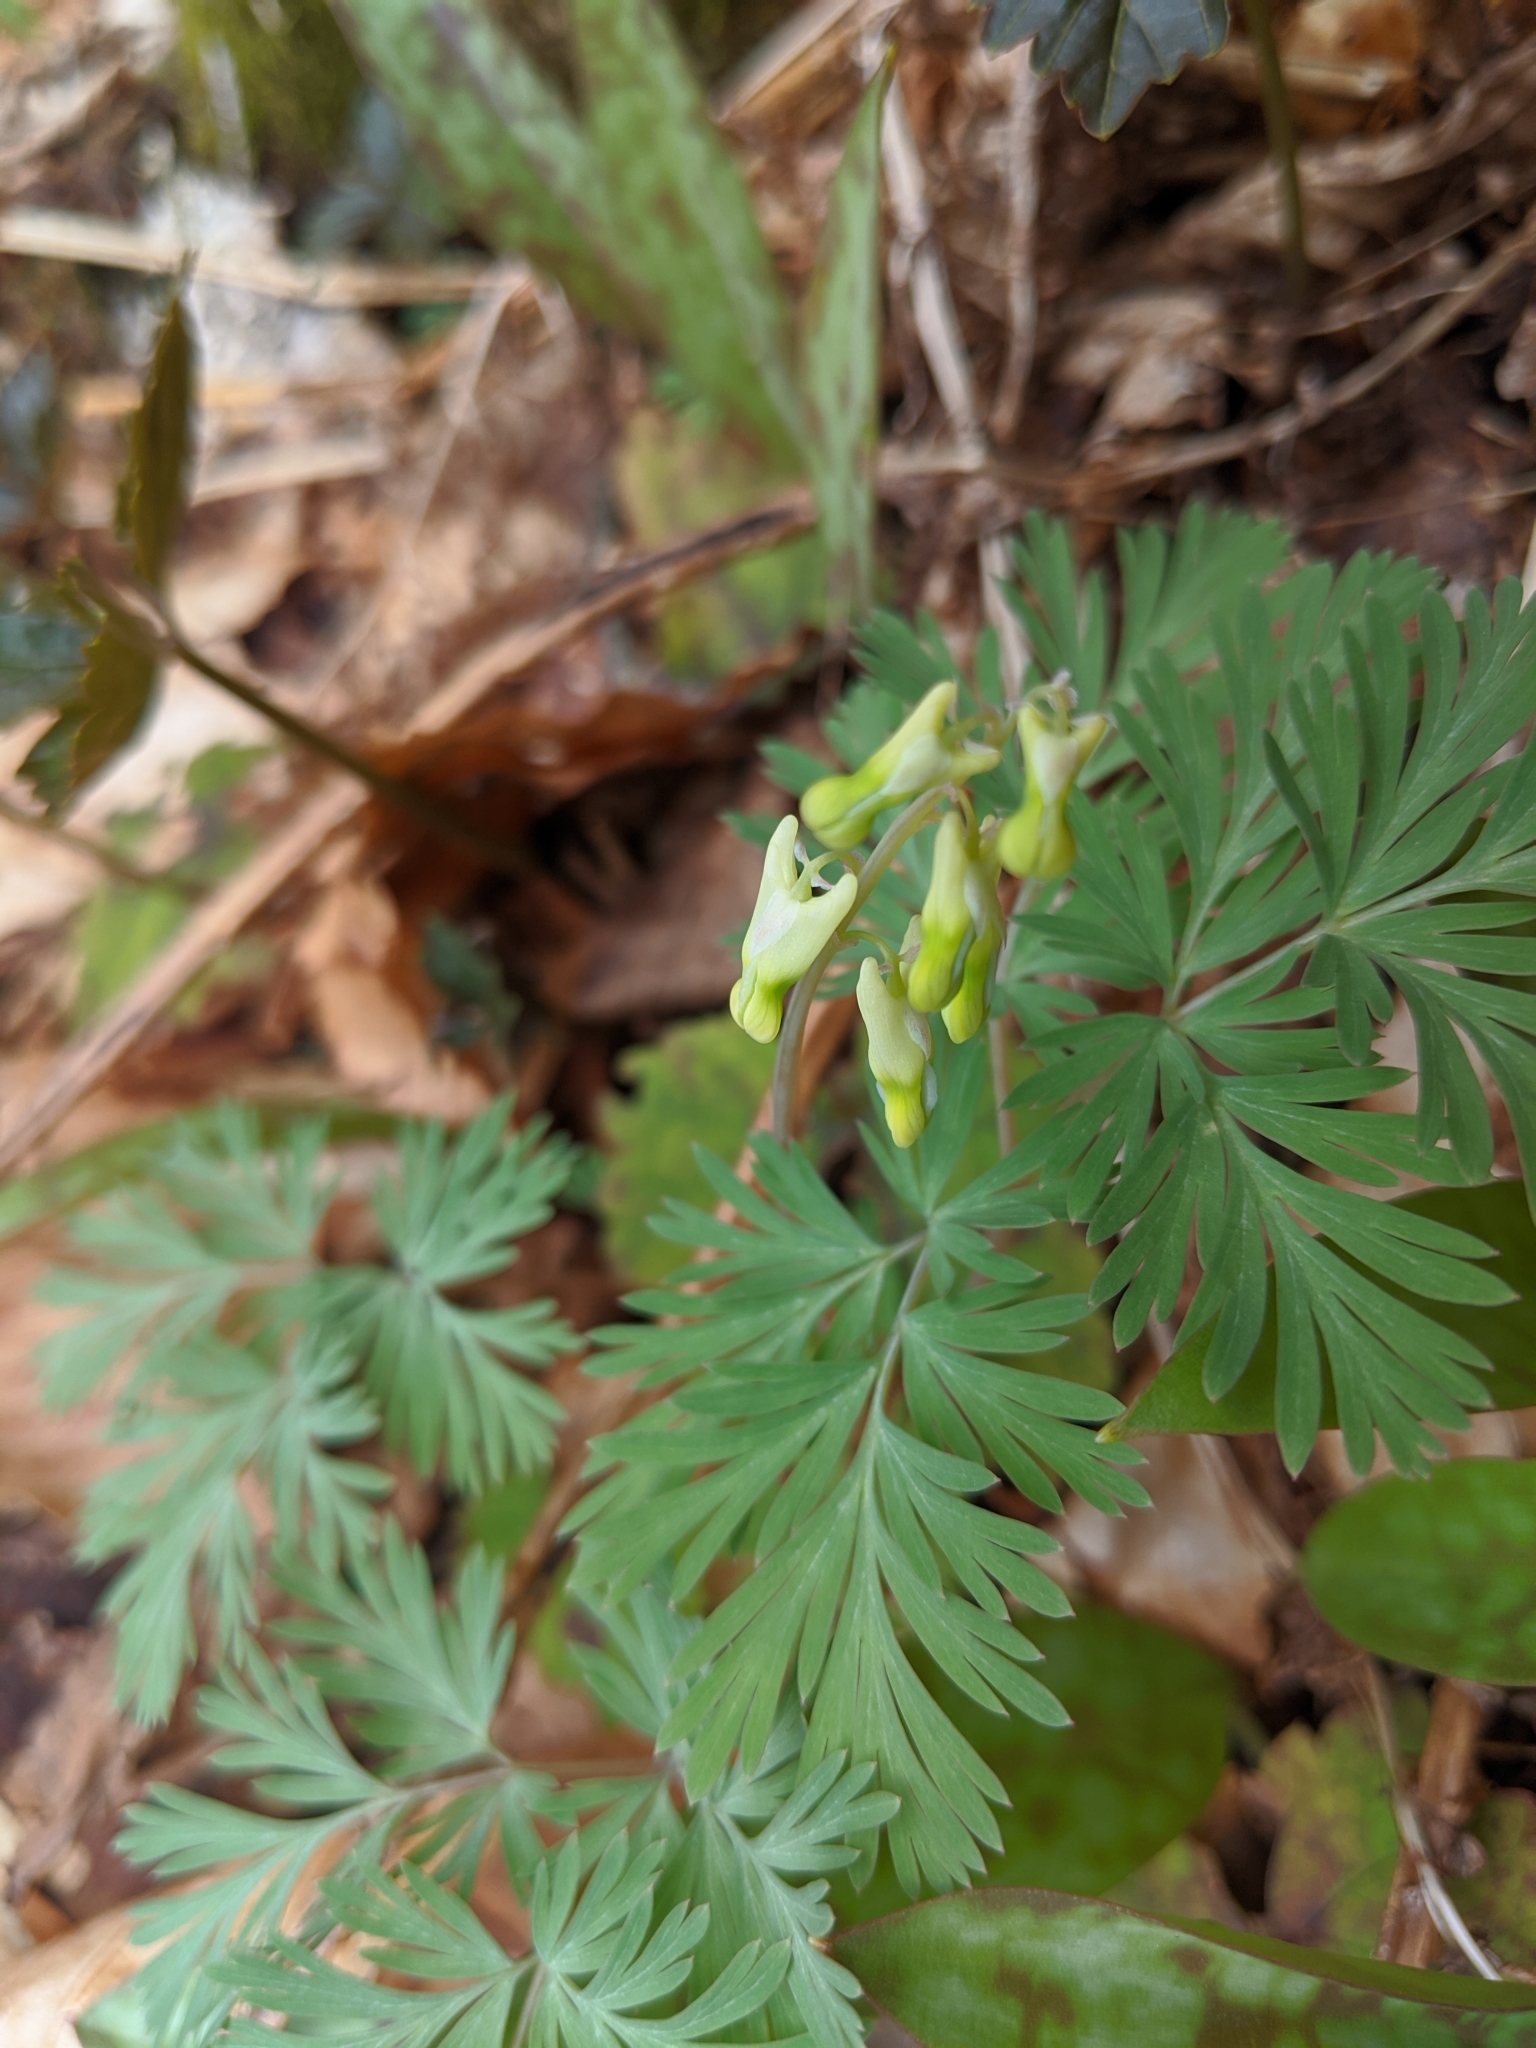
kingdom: Plantae
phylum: Tracheophyta
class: Magnoliopsida
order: Ranunculales
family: Papaveraceae
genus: Dicentra
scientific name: Dicentra cucullaria
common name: Dutchman's breeches
